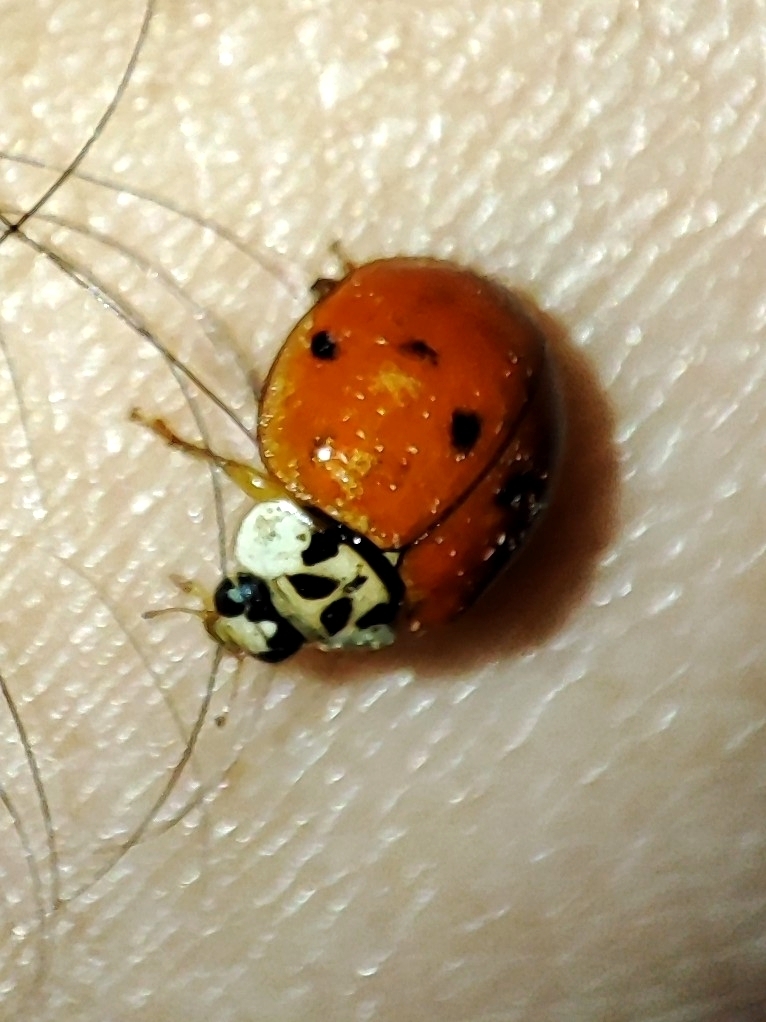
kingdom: Animalia
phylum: Arthropoda
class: Insecta
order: Coleoptera
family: Coccinellidae
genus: Harmonia
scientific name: Harmonia axyridis
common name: Harlequin ladybird
